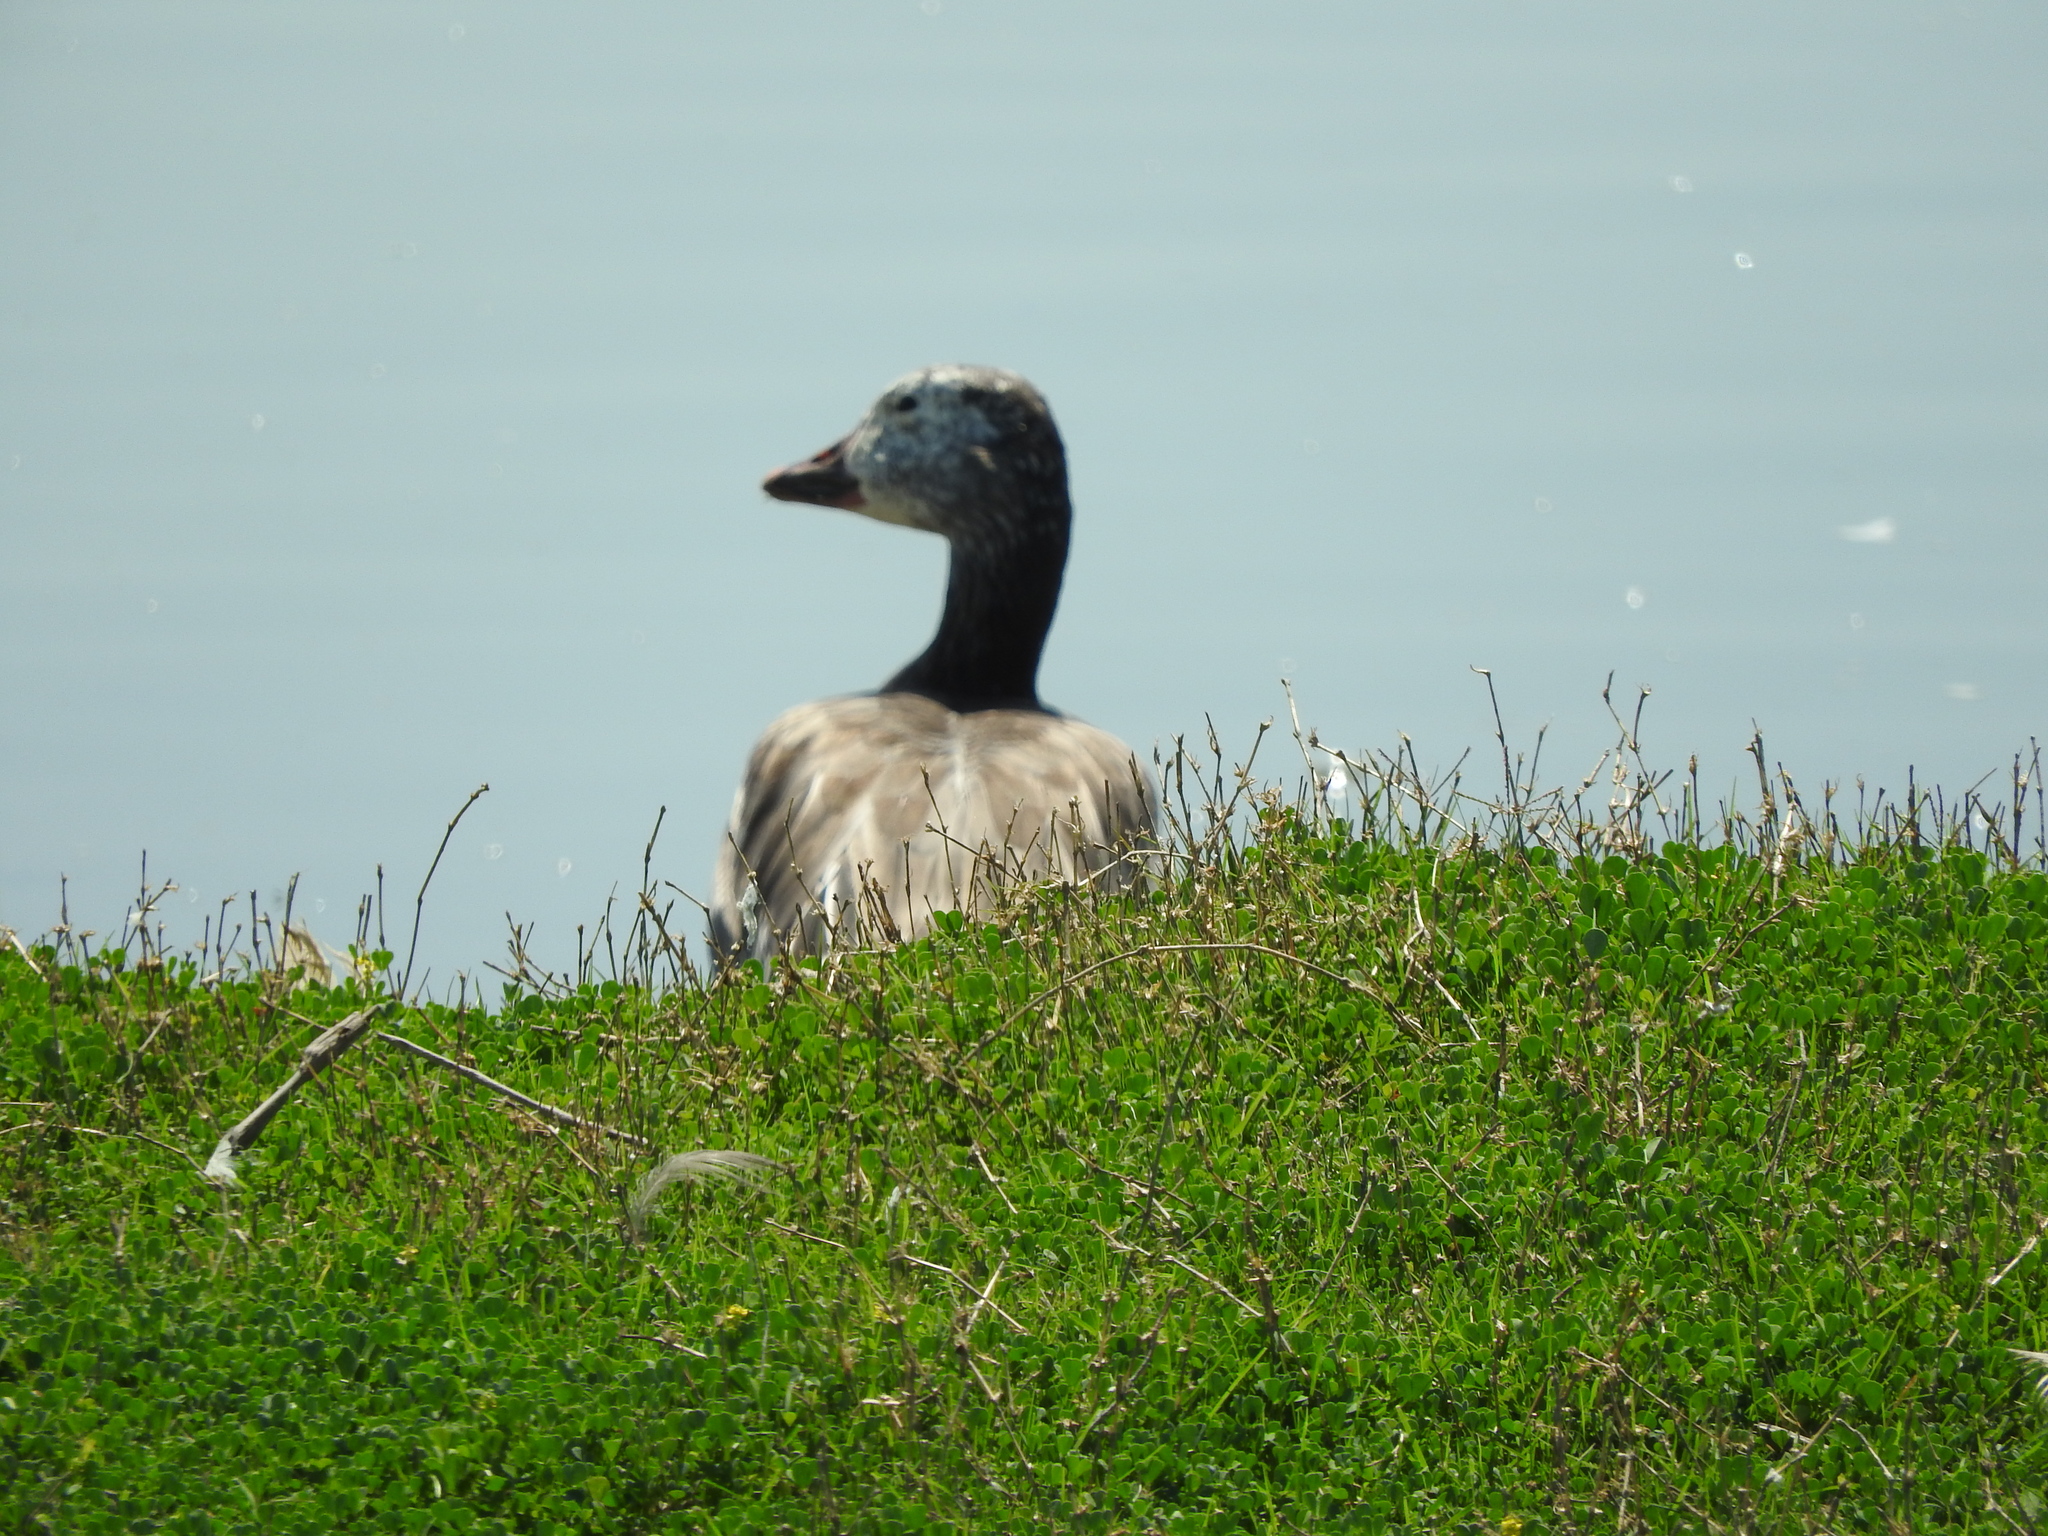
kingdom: Animalia
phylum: Chordata
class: Aves
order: Anseriformes
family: Anatidae
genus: Anser
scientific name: Anser caerulescens
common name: Snow goose
